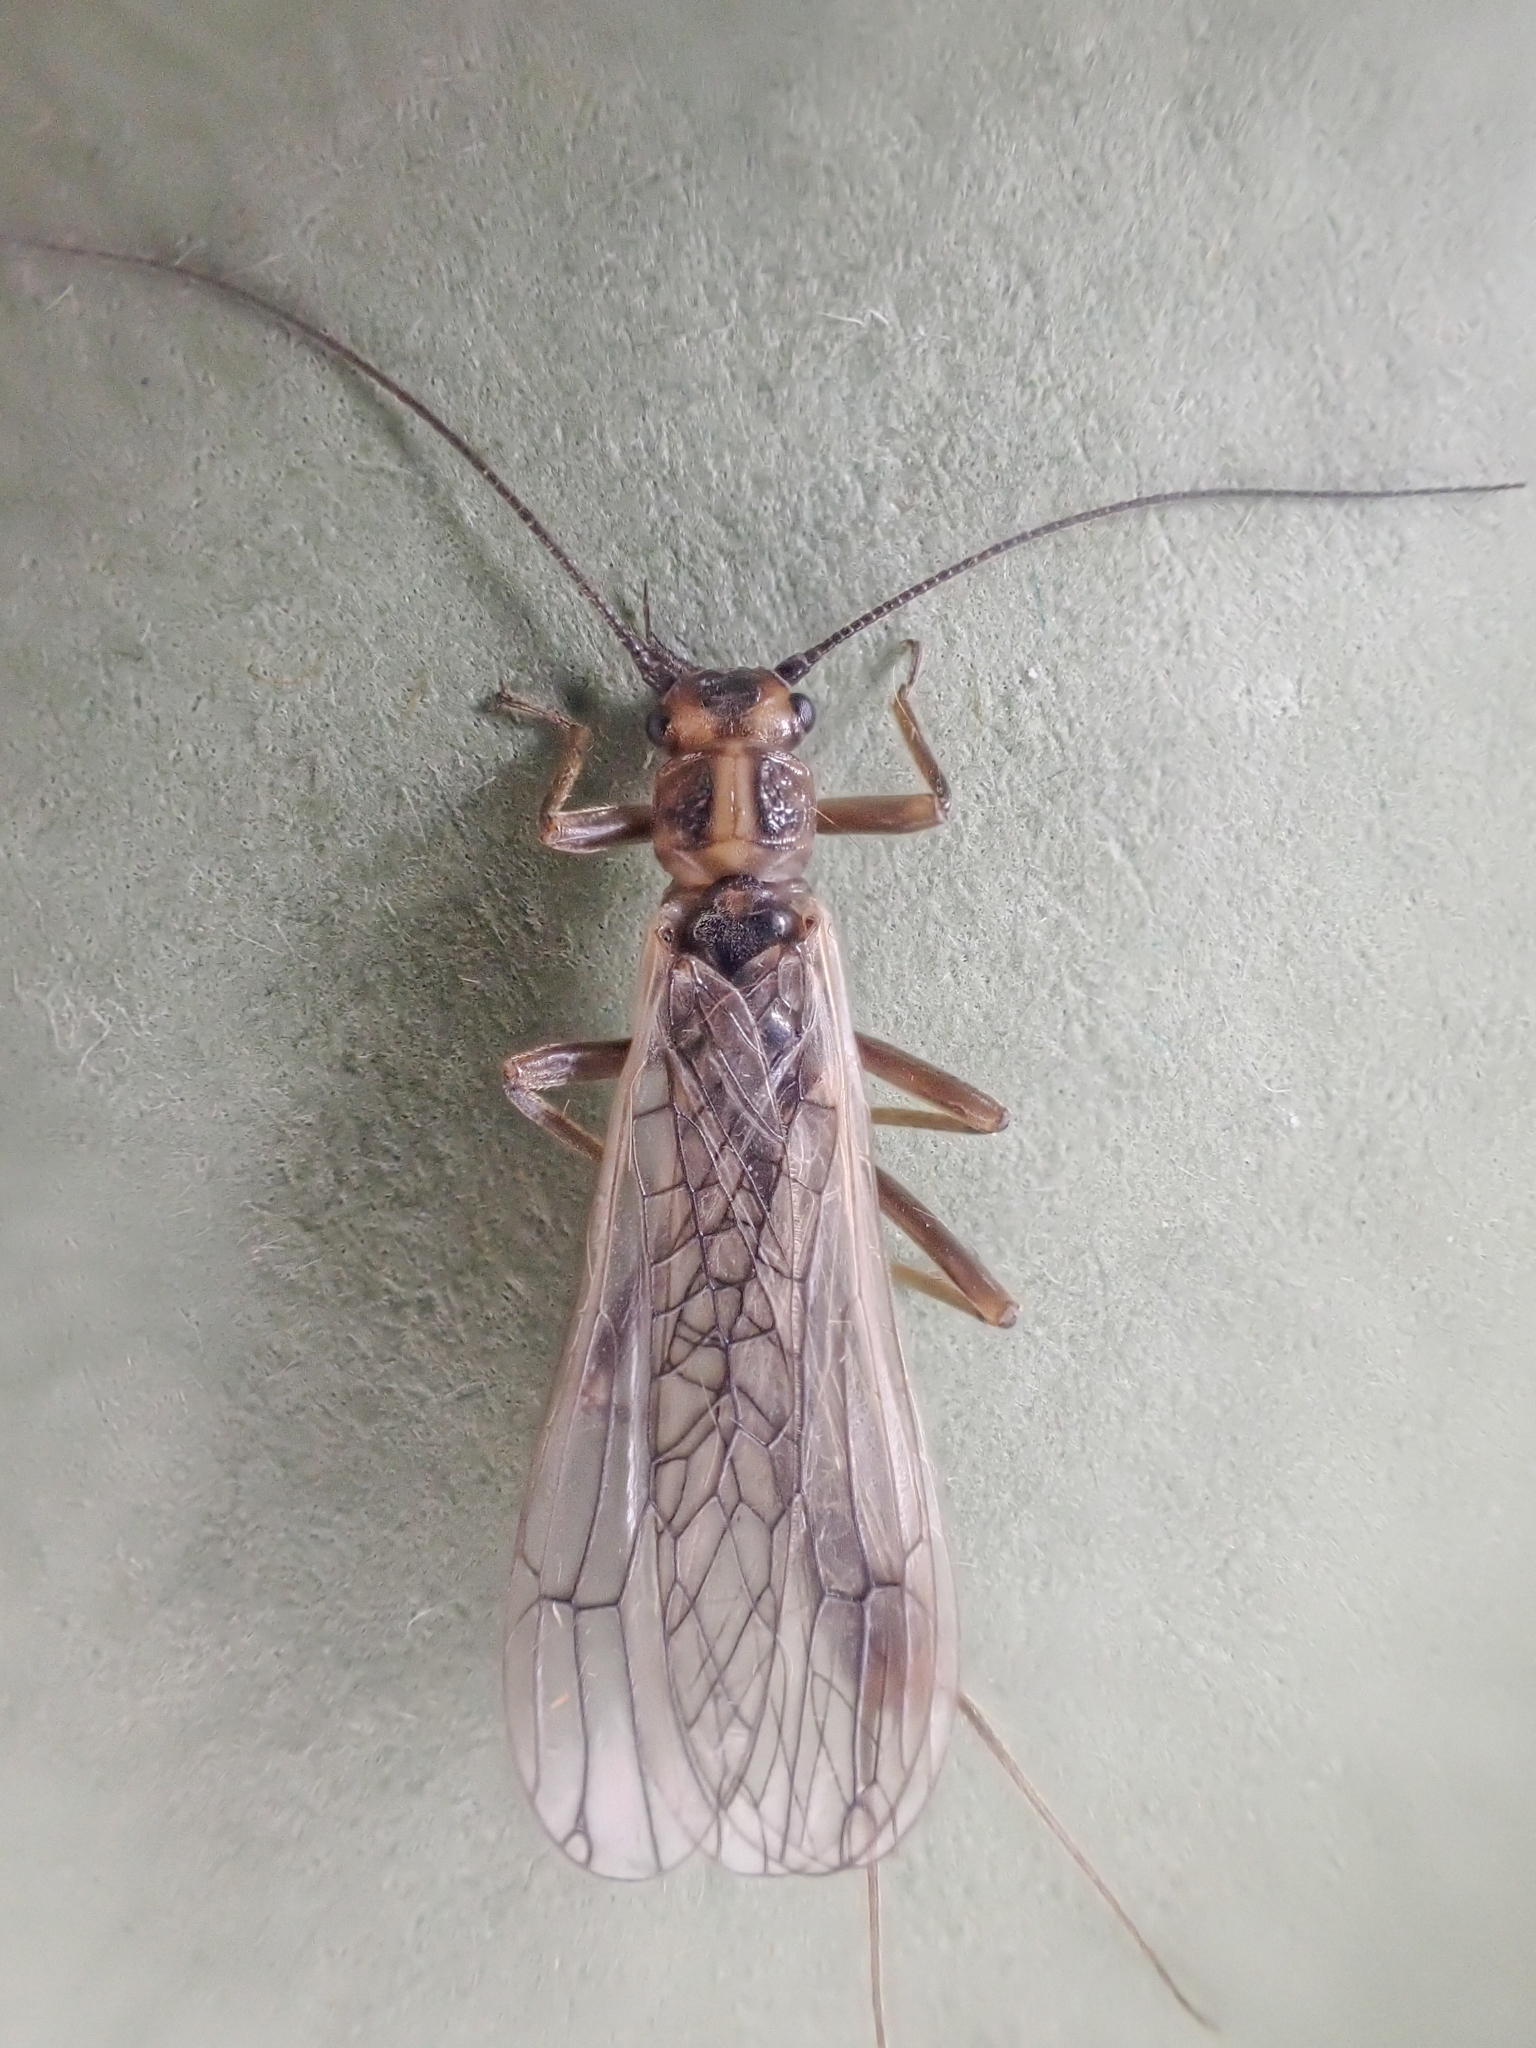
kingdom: Animalia
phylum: Arthropoda
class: Insecta
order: Plecoptera
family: Perlodidae
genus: Isoperla
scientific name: Isoperla sordida
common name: Notched stripetail
